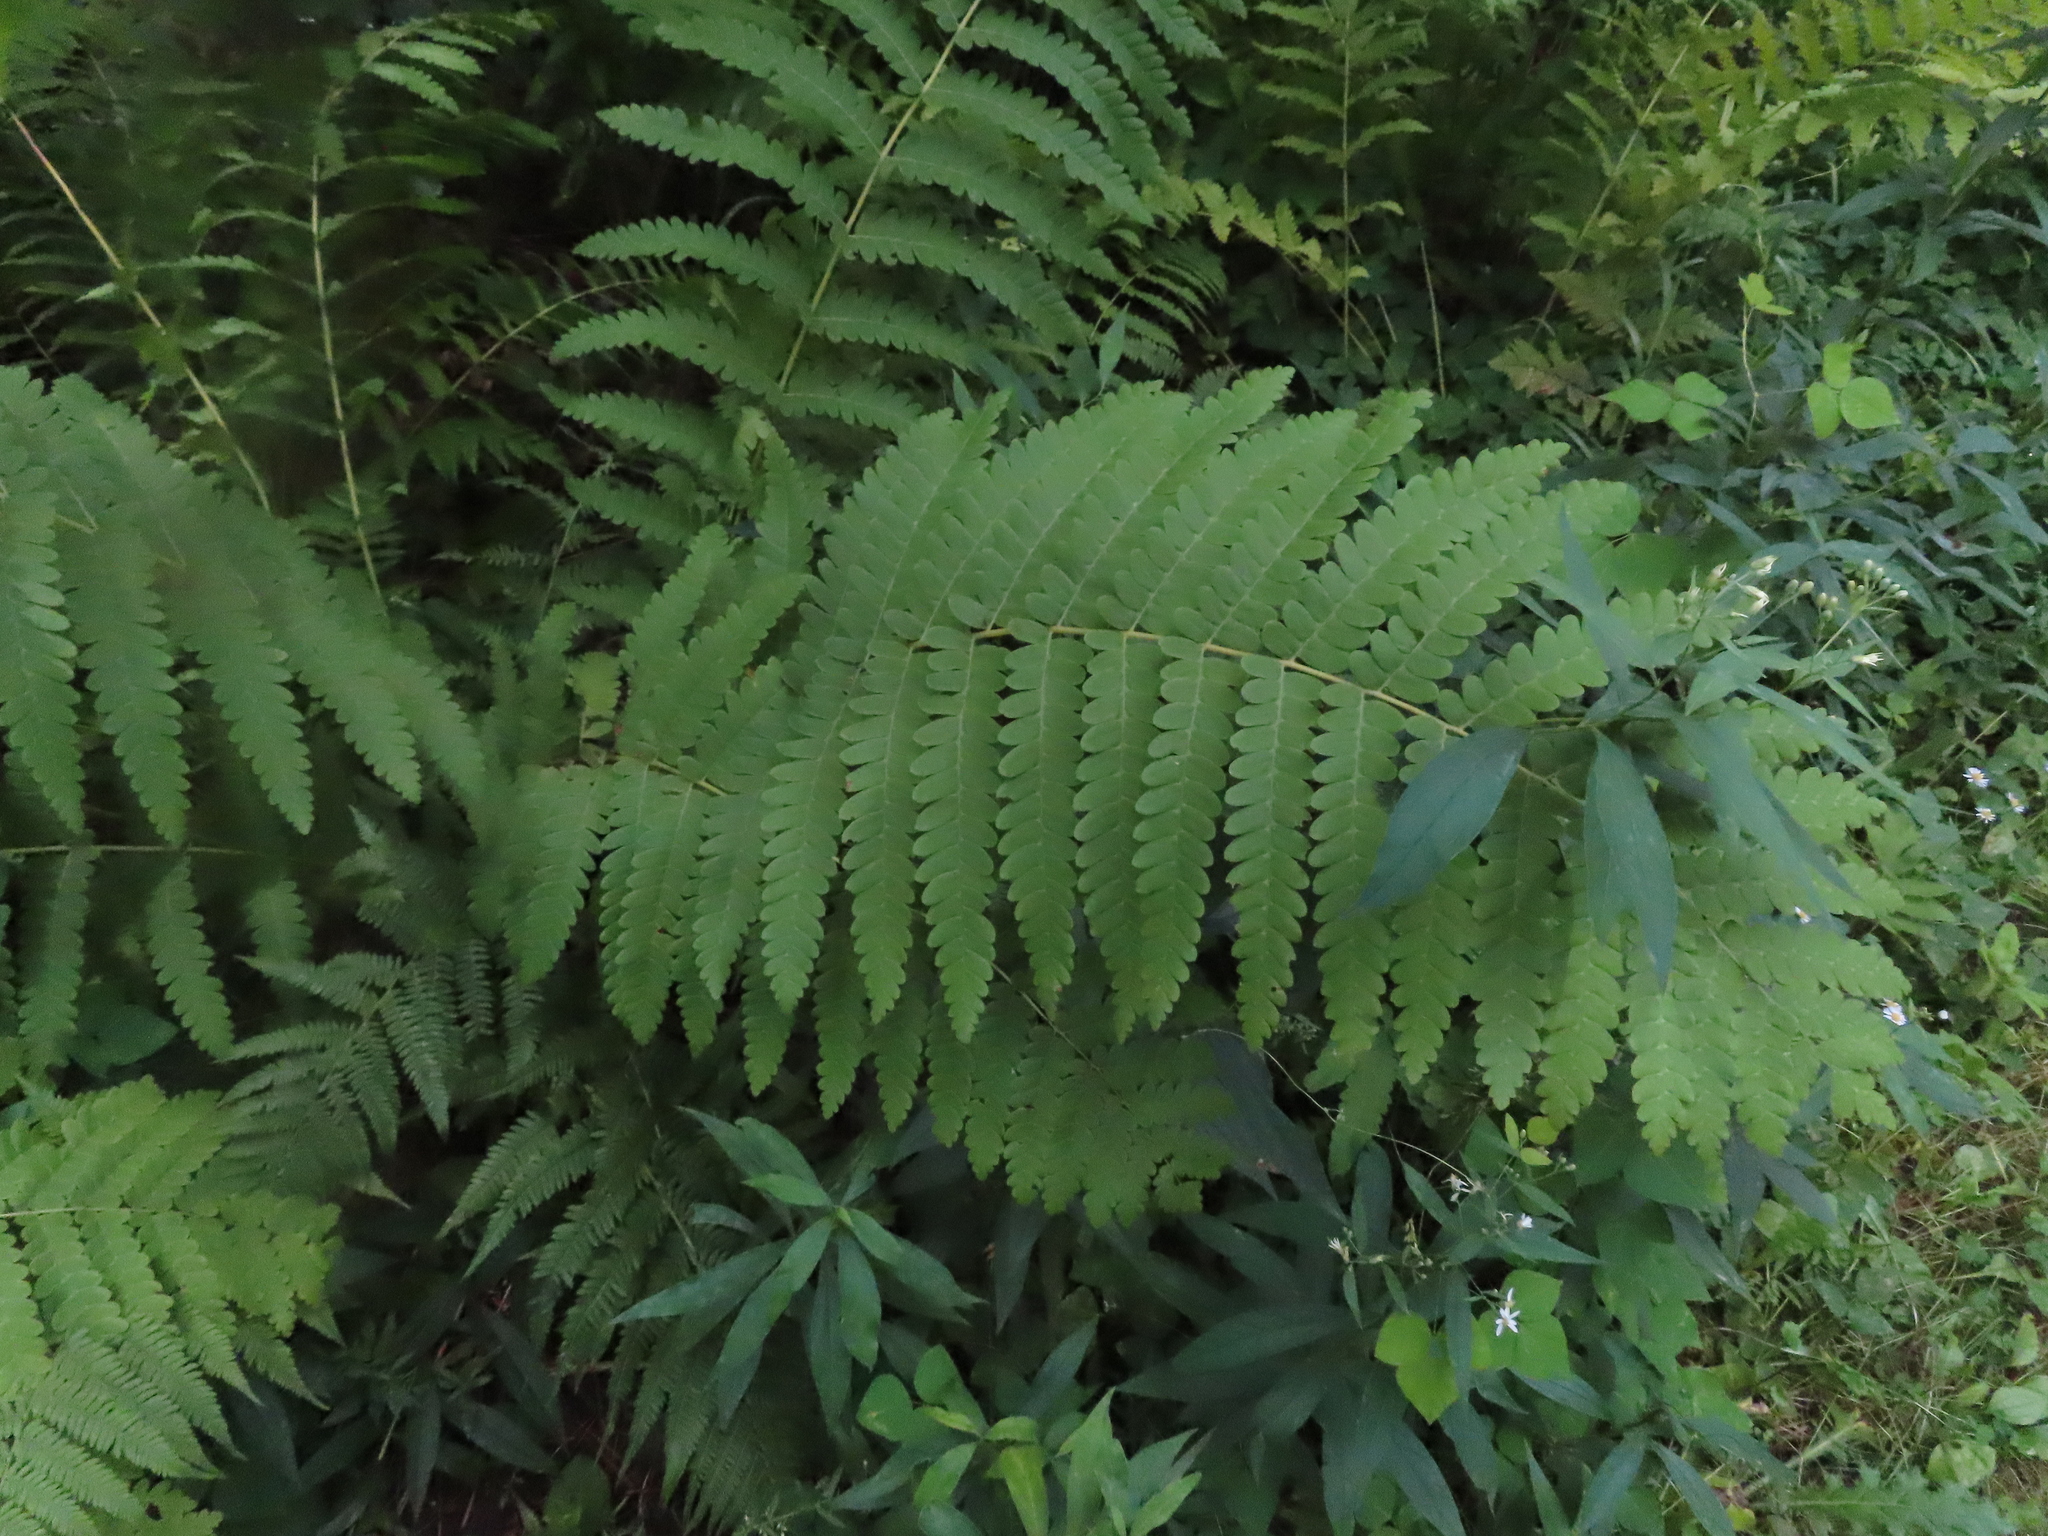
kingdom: Plantae
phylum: Tracheophyta
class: Polypodiopsida
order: Osmundales
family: Osmundaceae
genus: Claytosmunda
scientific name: Claytosmunda claytoniana
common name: Clayton's fern
